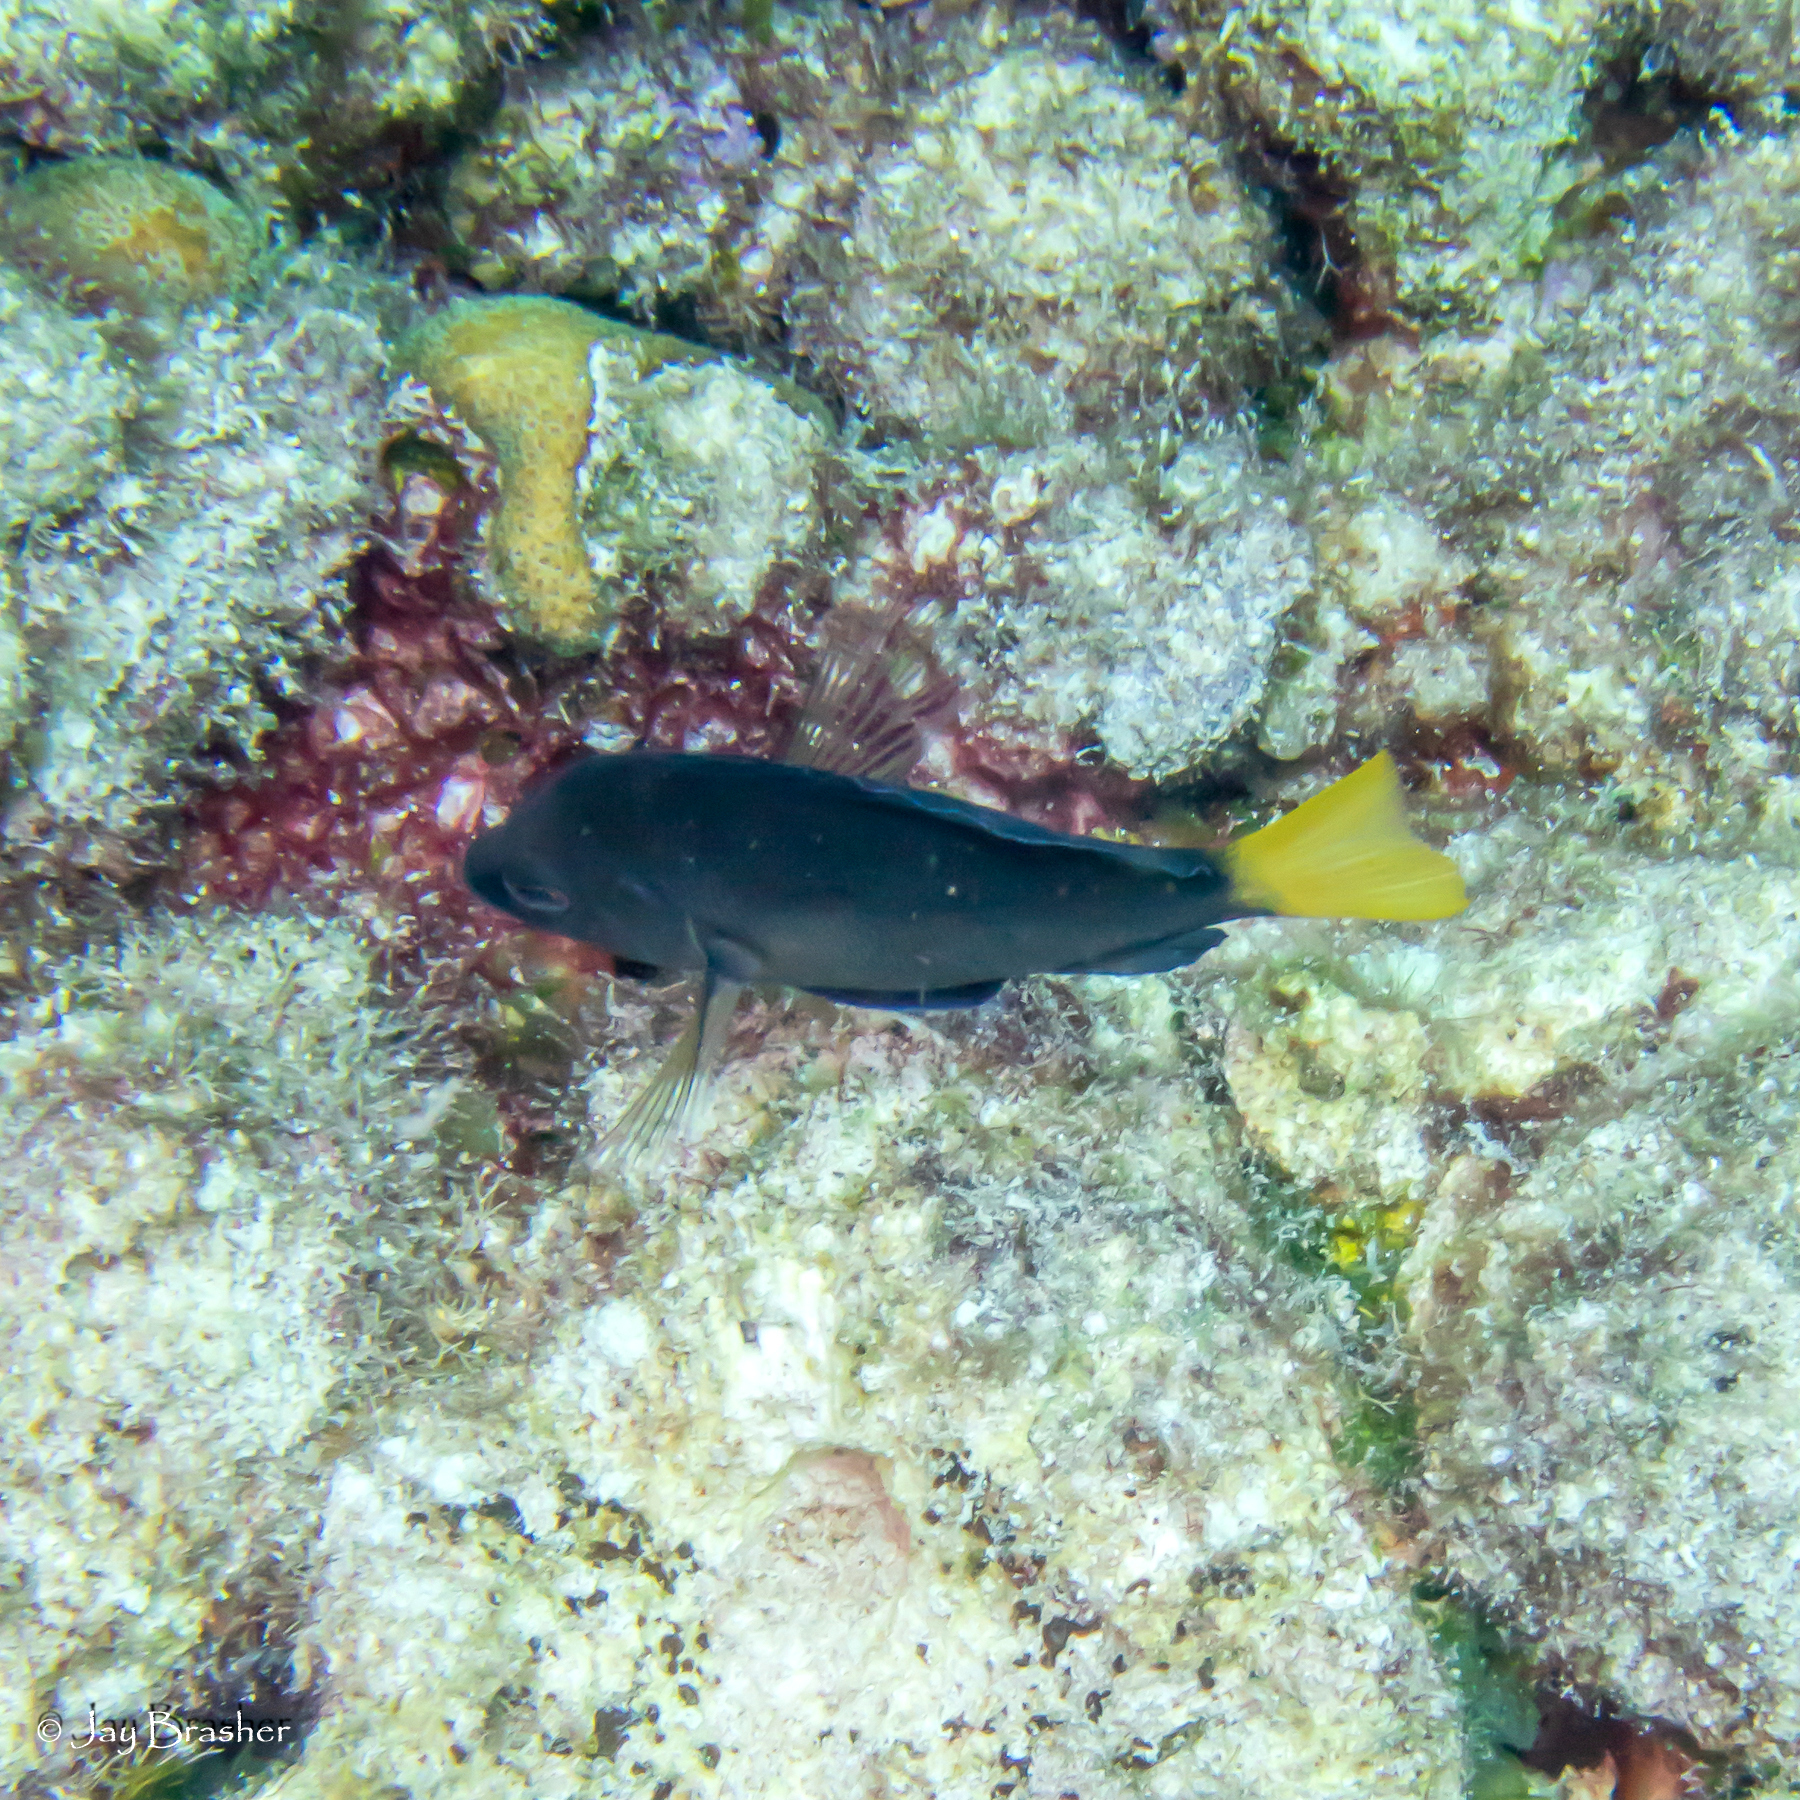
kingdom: Animalia
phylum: Chordata
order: Perciformes
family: Serranidae
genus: Hypoplectrus
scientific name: Hypoplectrus chlorurus
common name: Yellowtail hamlet
